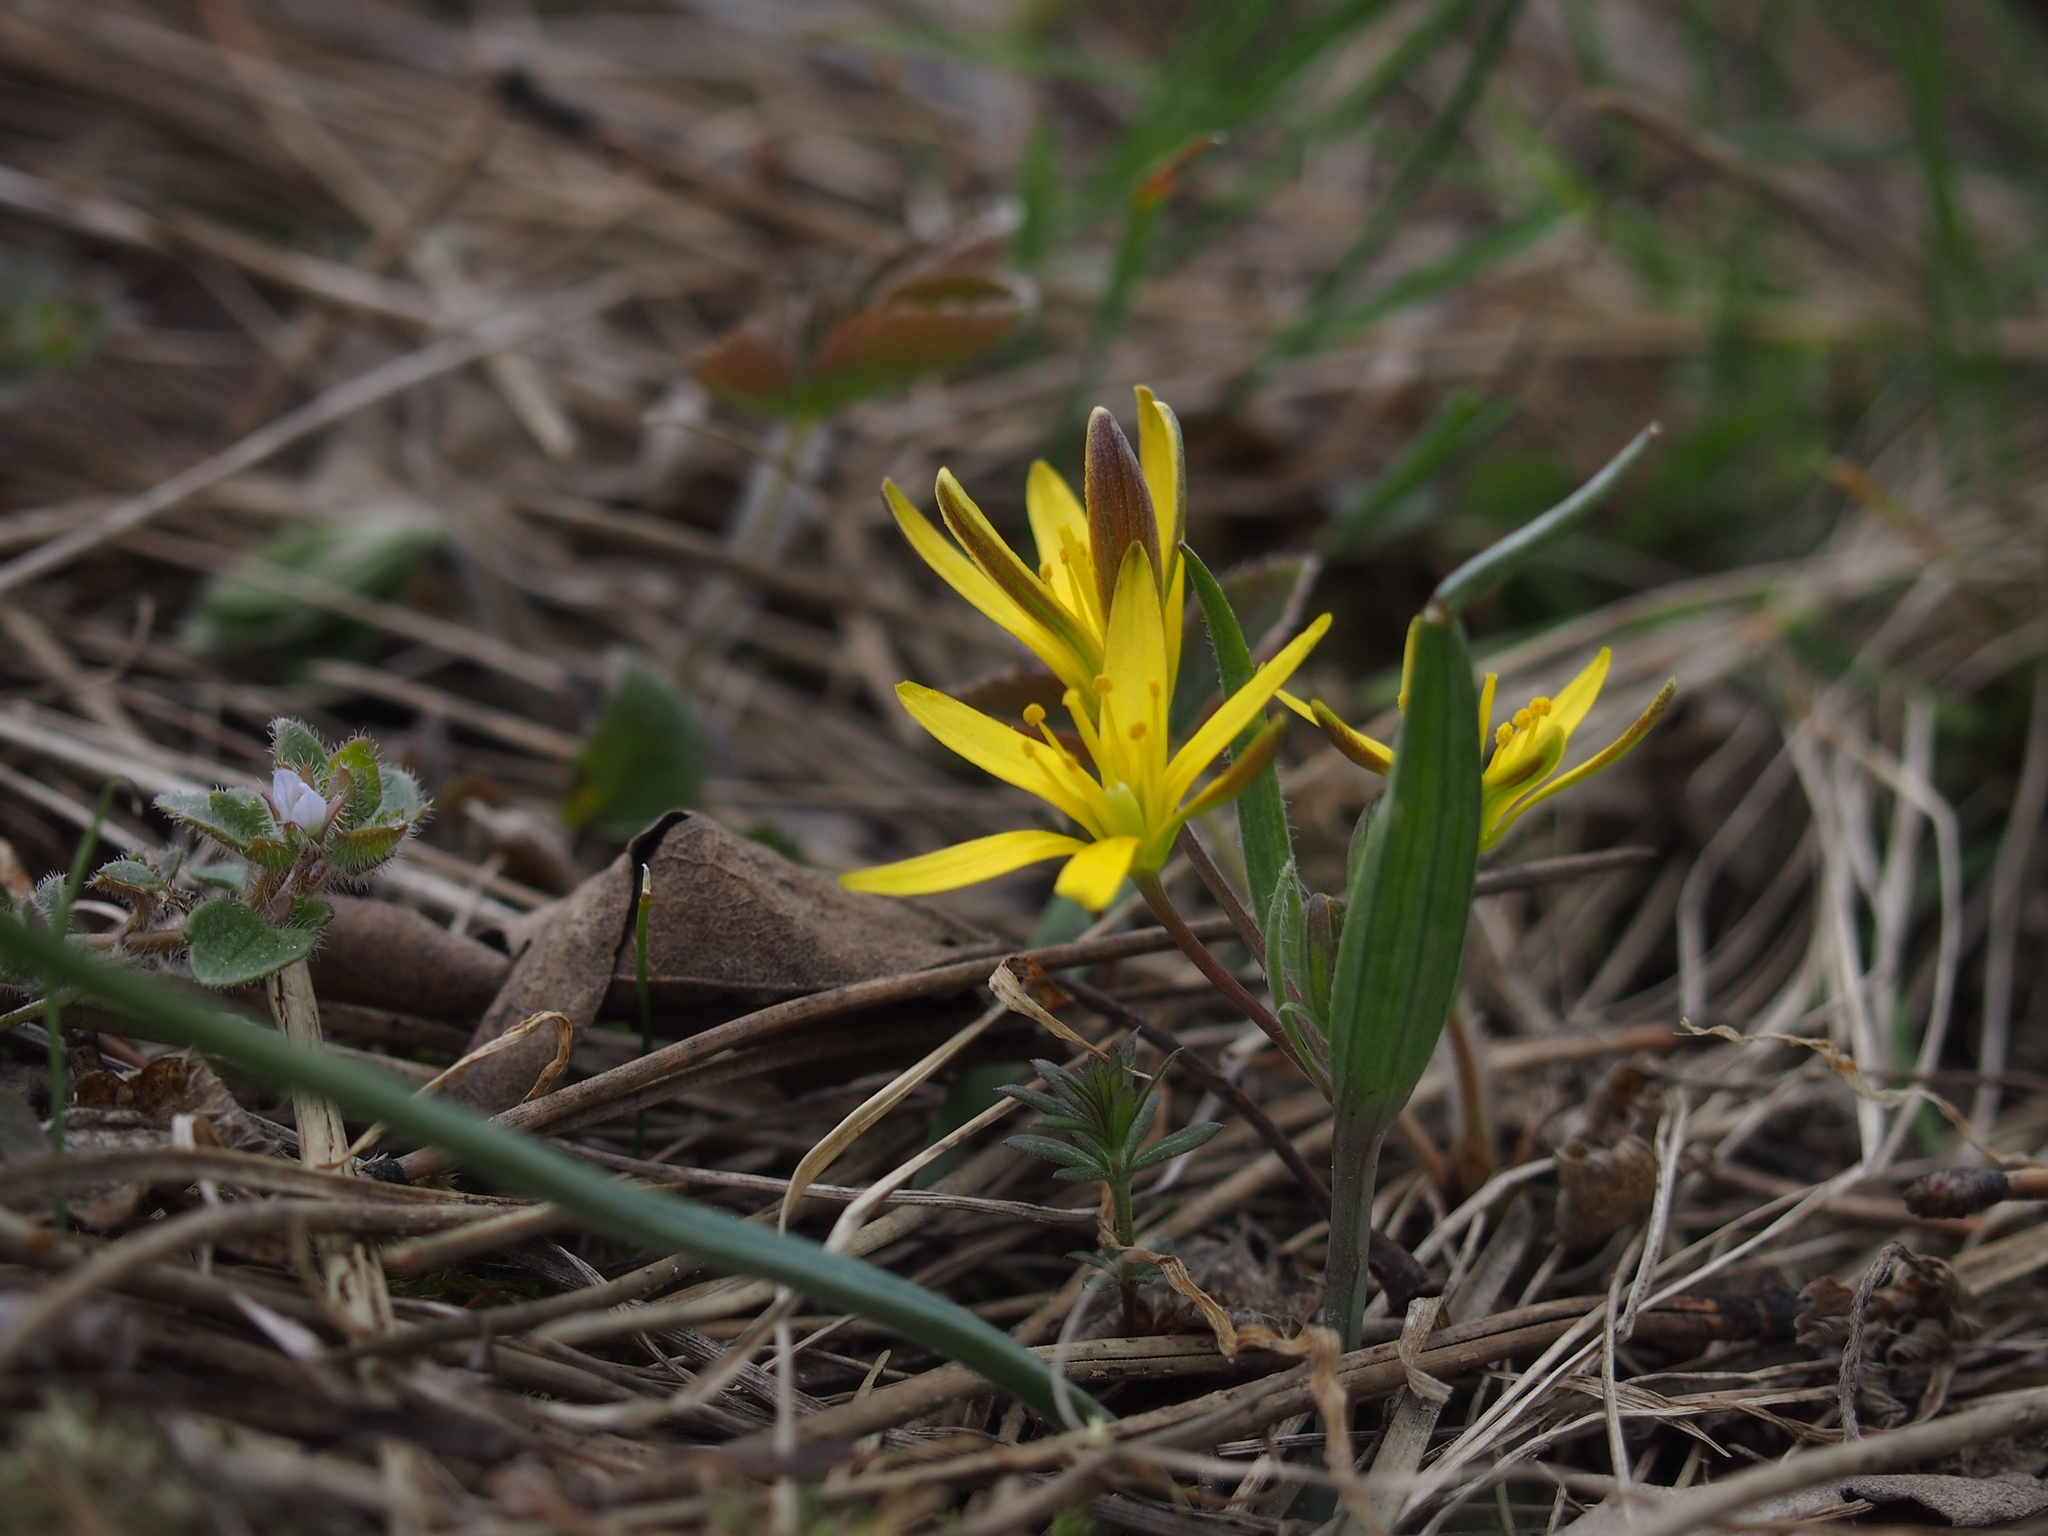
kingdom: Plantae
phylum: Tracheophyta
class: Liliopsida
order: Liliales
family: Liliaceae
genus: Gagea
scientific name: Gagea lutea
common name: Yellow star-of-bethlehem
